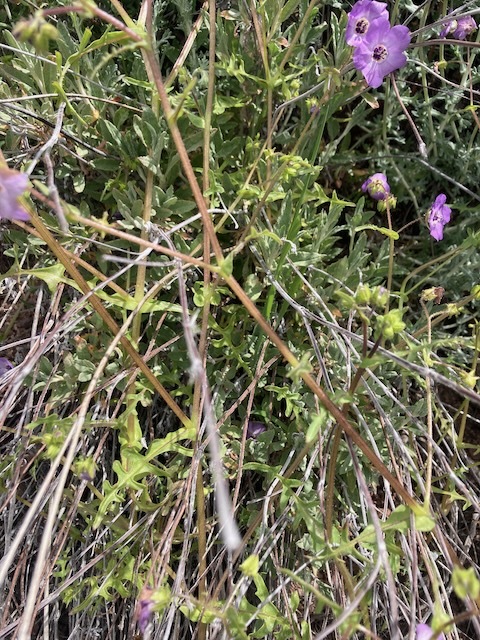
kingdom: Plantae
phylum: Tracheophyta
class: Magnoliopsida
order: Boraginales
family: Hydrophyllaceae
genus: Pholistoma
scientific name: Pholistoma auritum
